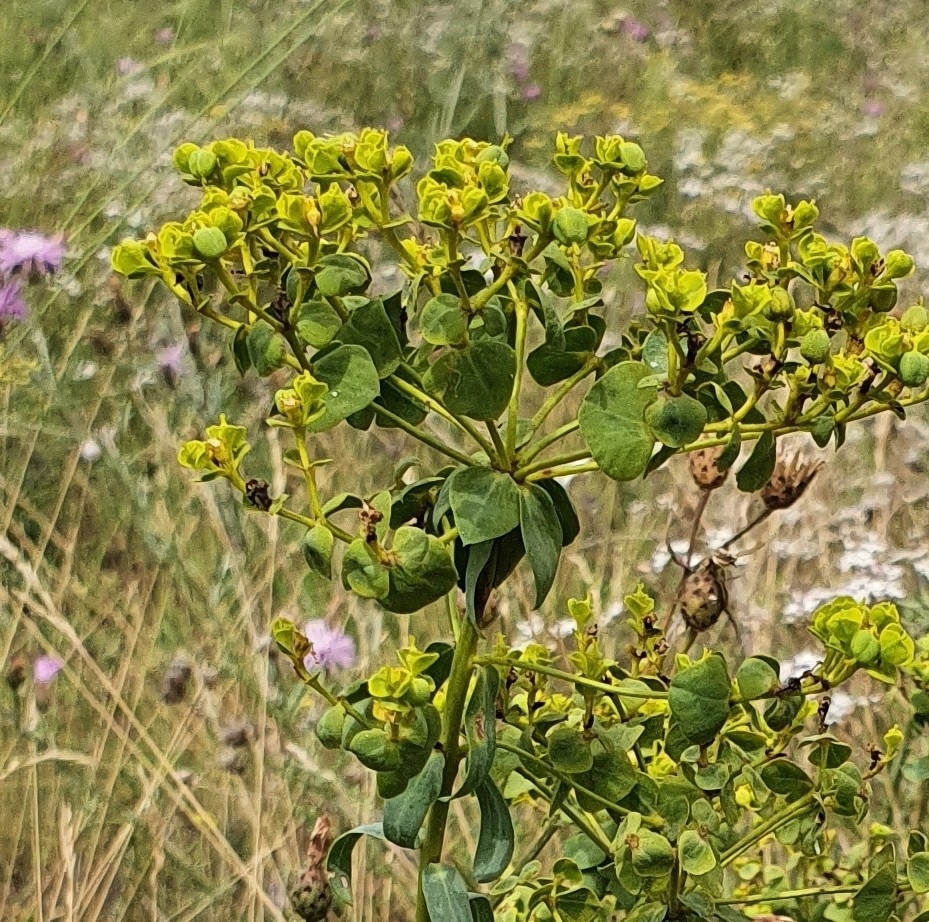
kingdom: Plantae
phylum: Tracheophyta
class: Magnoliopsida
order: Malpighiales
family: Euphorbiaceae
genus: Euphorbia
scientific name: Euphorbia seguieriana
